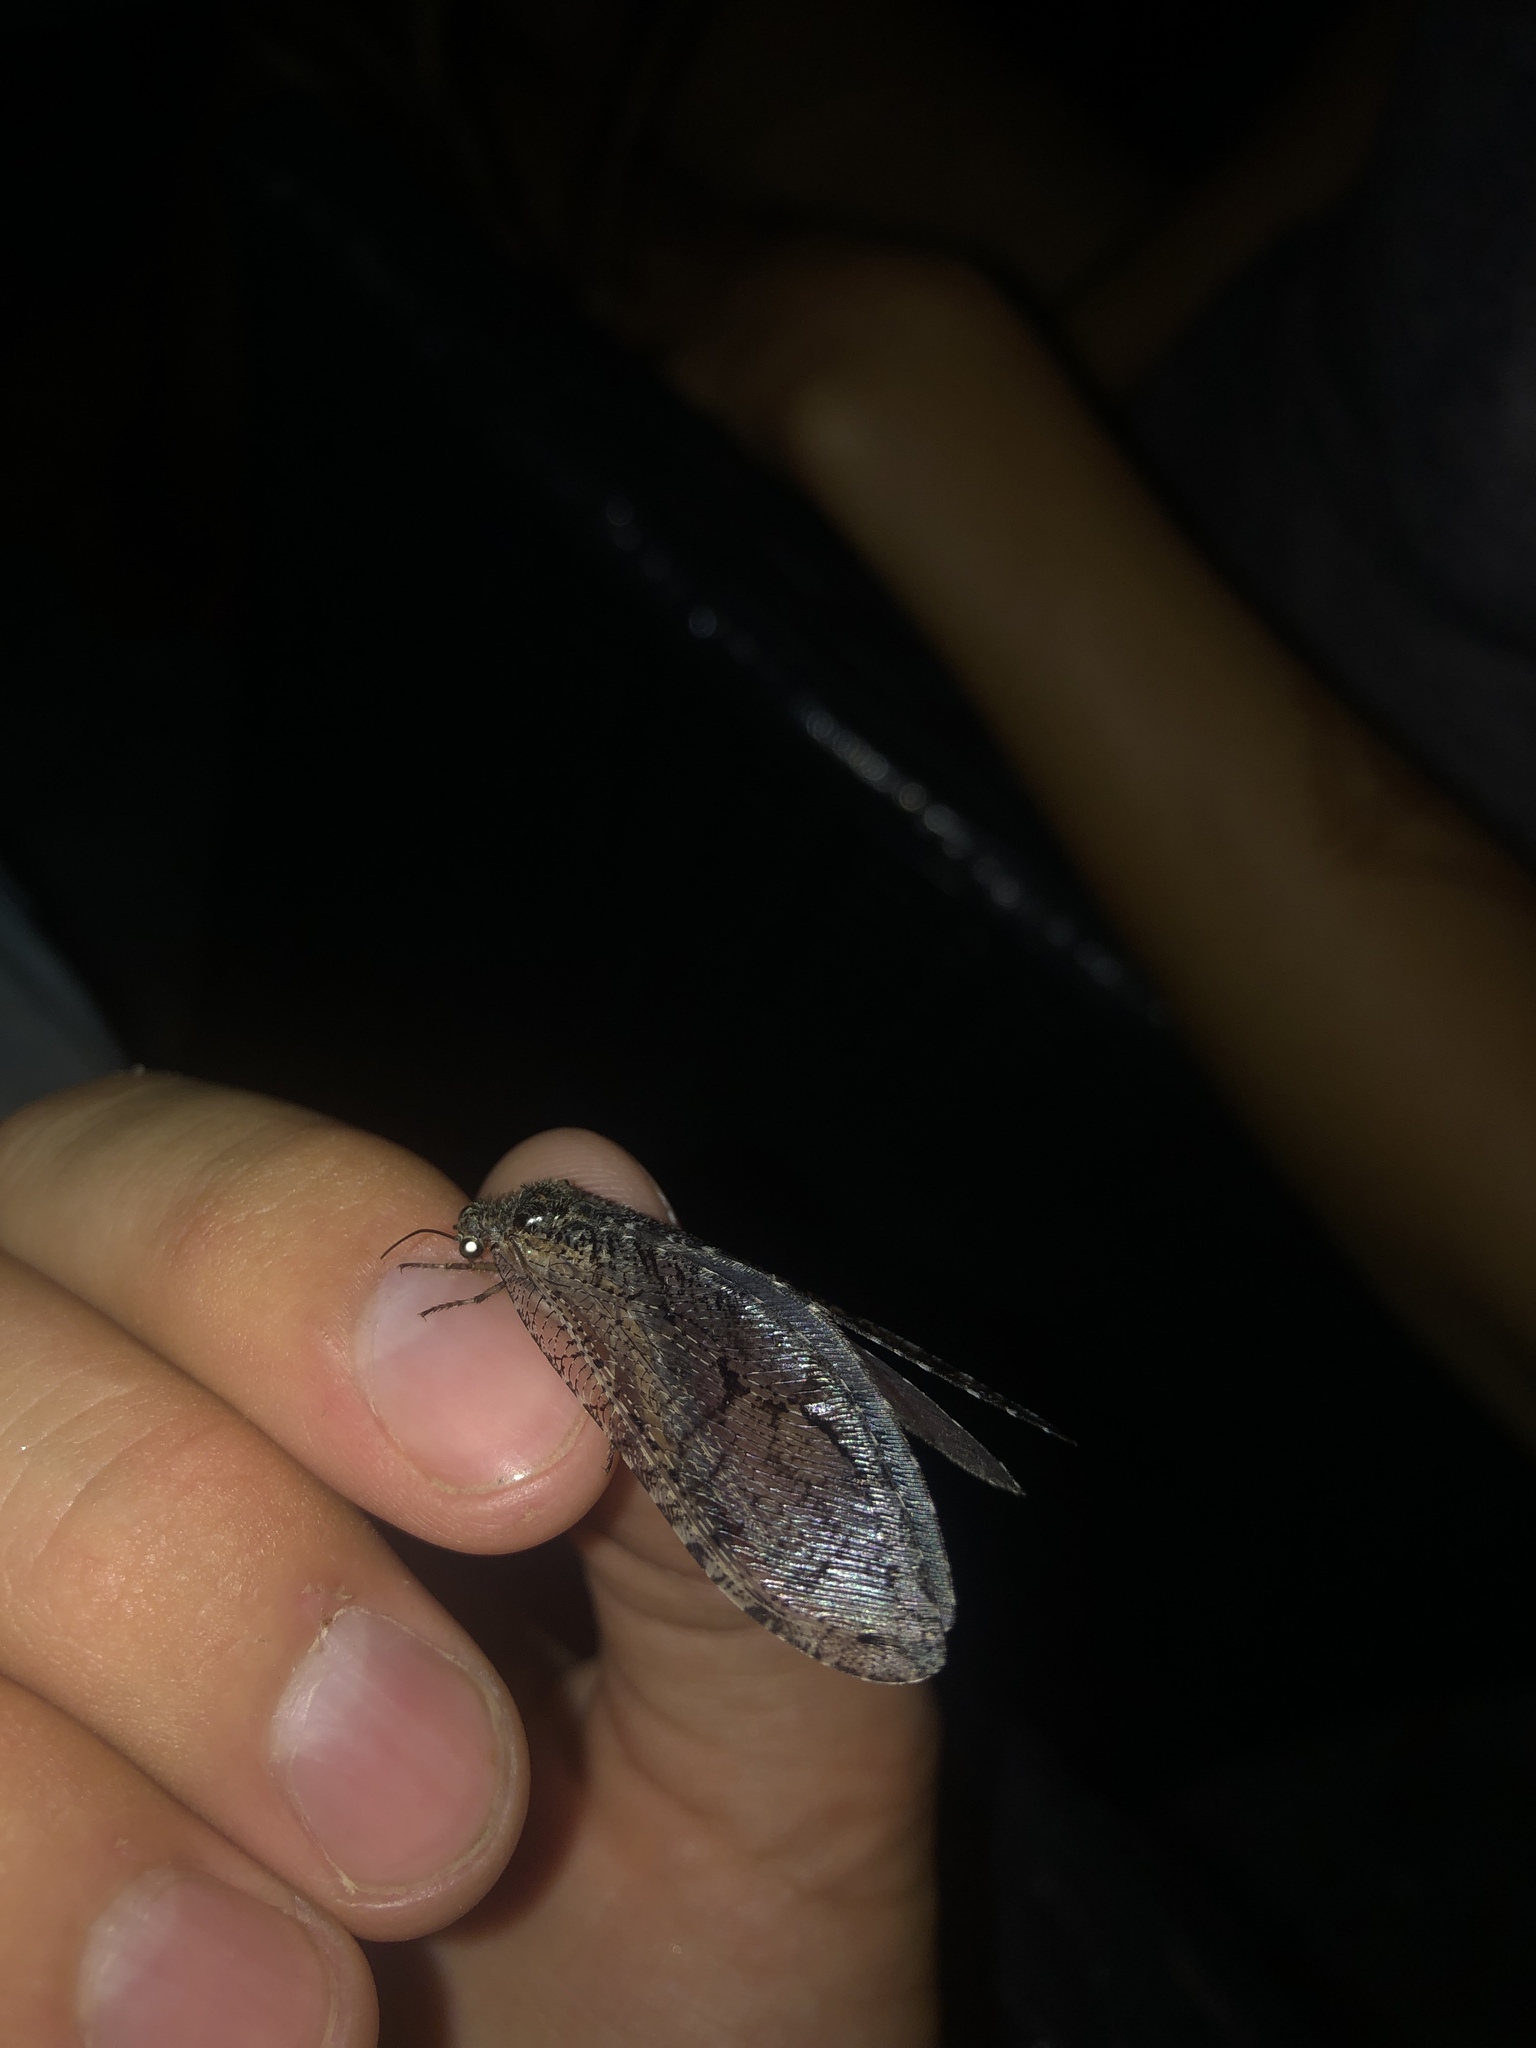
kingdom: Animalia
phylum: Arthropoda
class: Insecta
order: Neuroptera
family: Ithonidae
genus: Polystoechotes
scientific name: Polystoechotes punctata
